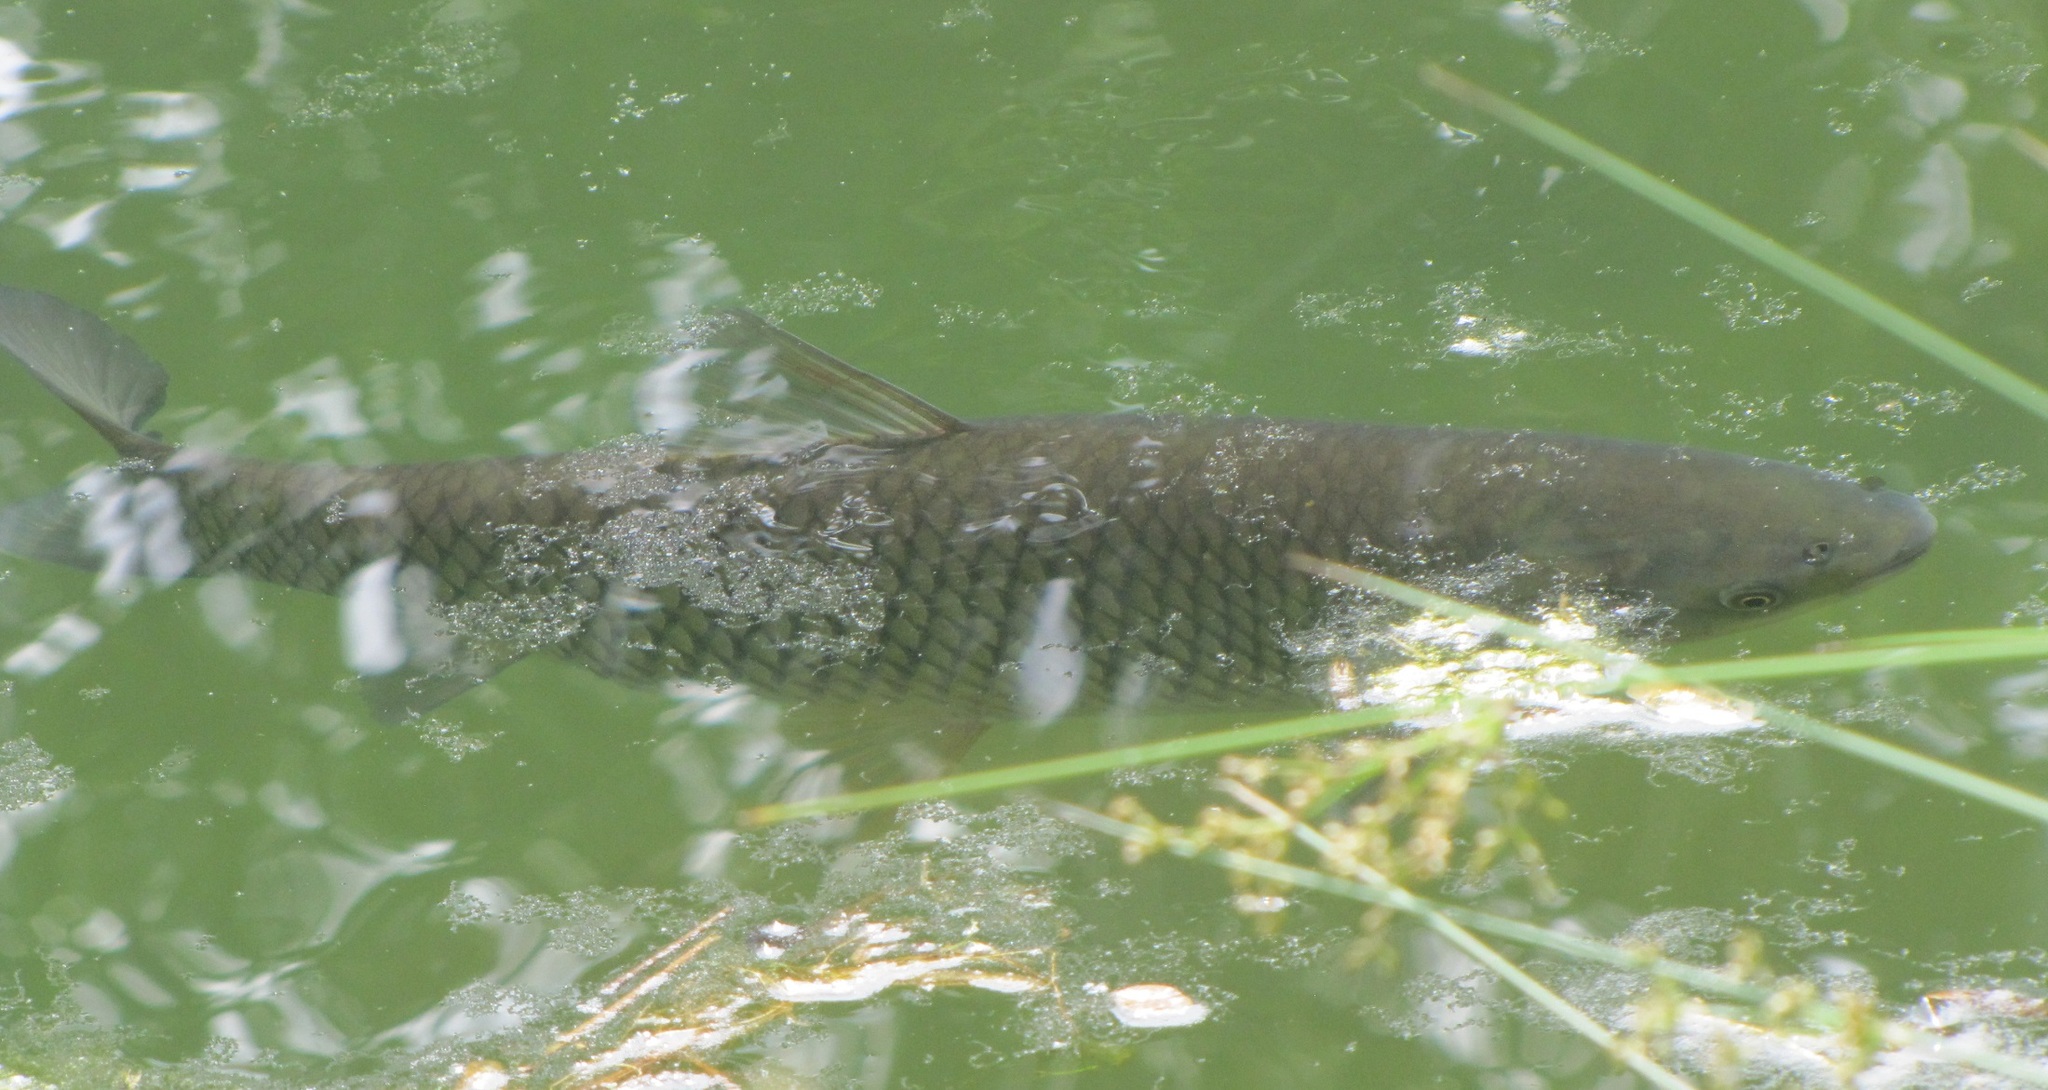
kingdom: Animalia
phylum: Chordata
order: Cypriniformes
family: Cyprinidae
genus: Ctenopharyngodon
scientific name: Ctenopharyngodon idella
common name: Grass carp
